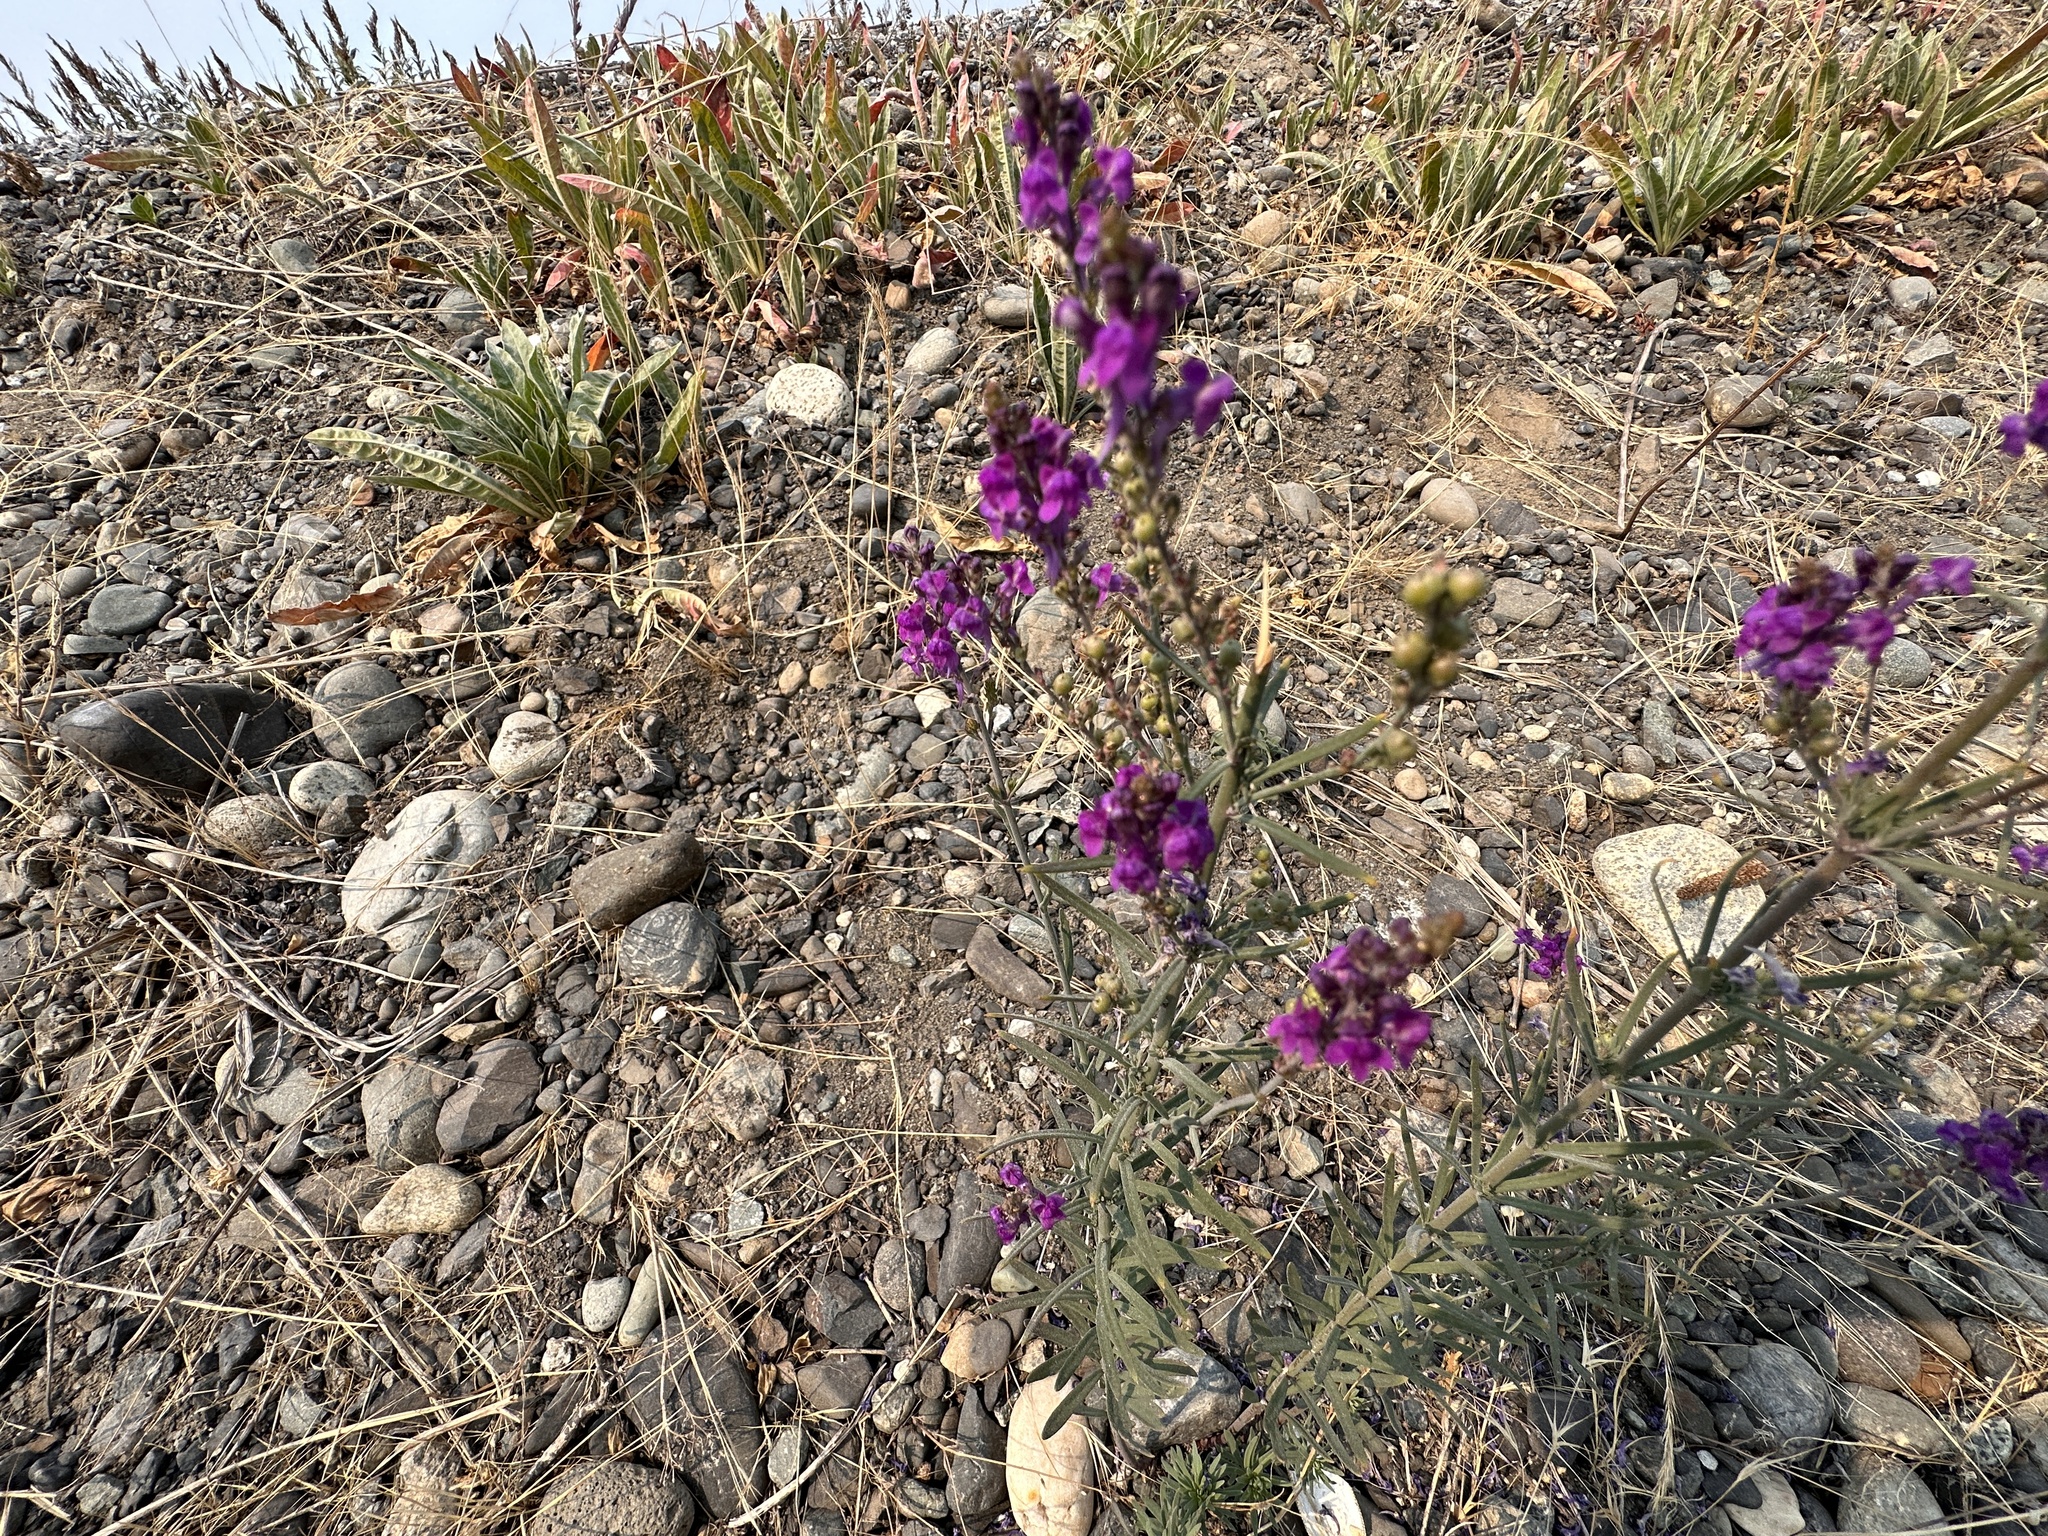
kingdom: Plantae
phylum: Tracheophyta
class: Magnoliopsida
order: Lamiales
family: Plantaginaceae
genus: Linaria
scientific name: Linaria purpurea
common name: Purple toadflax
